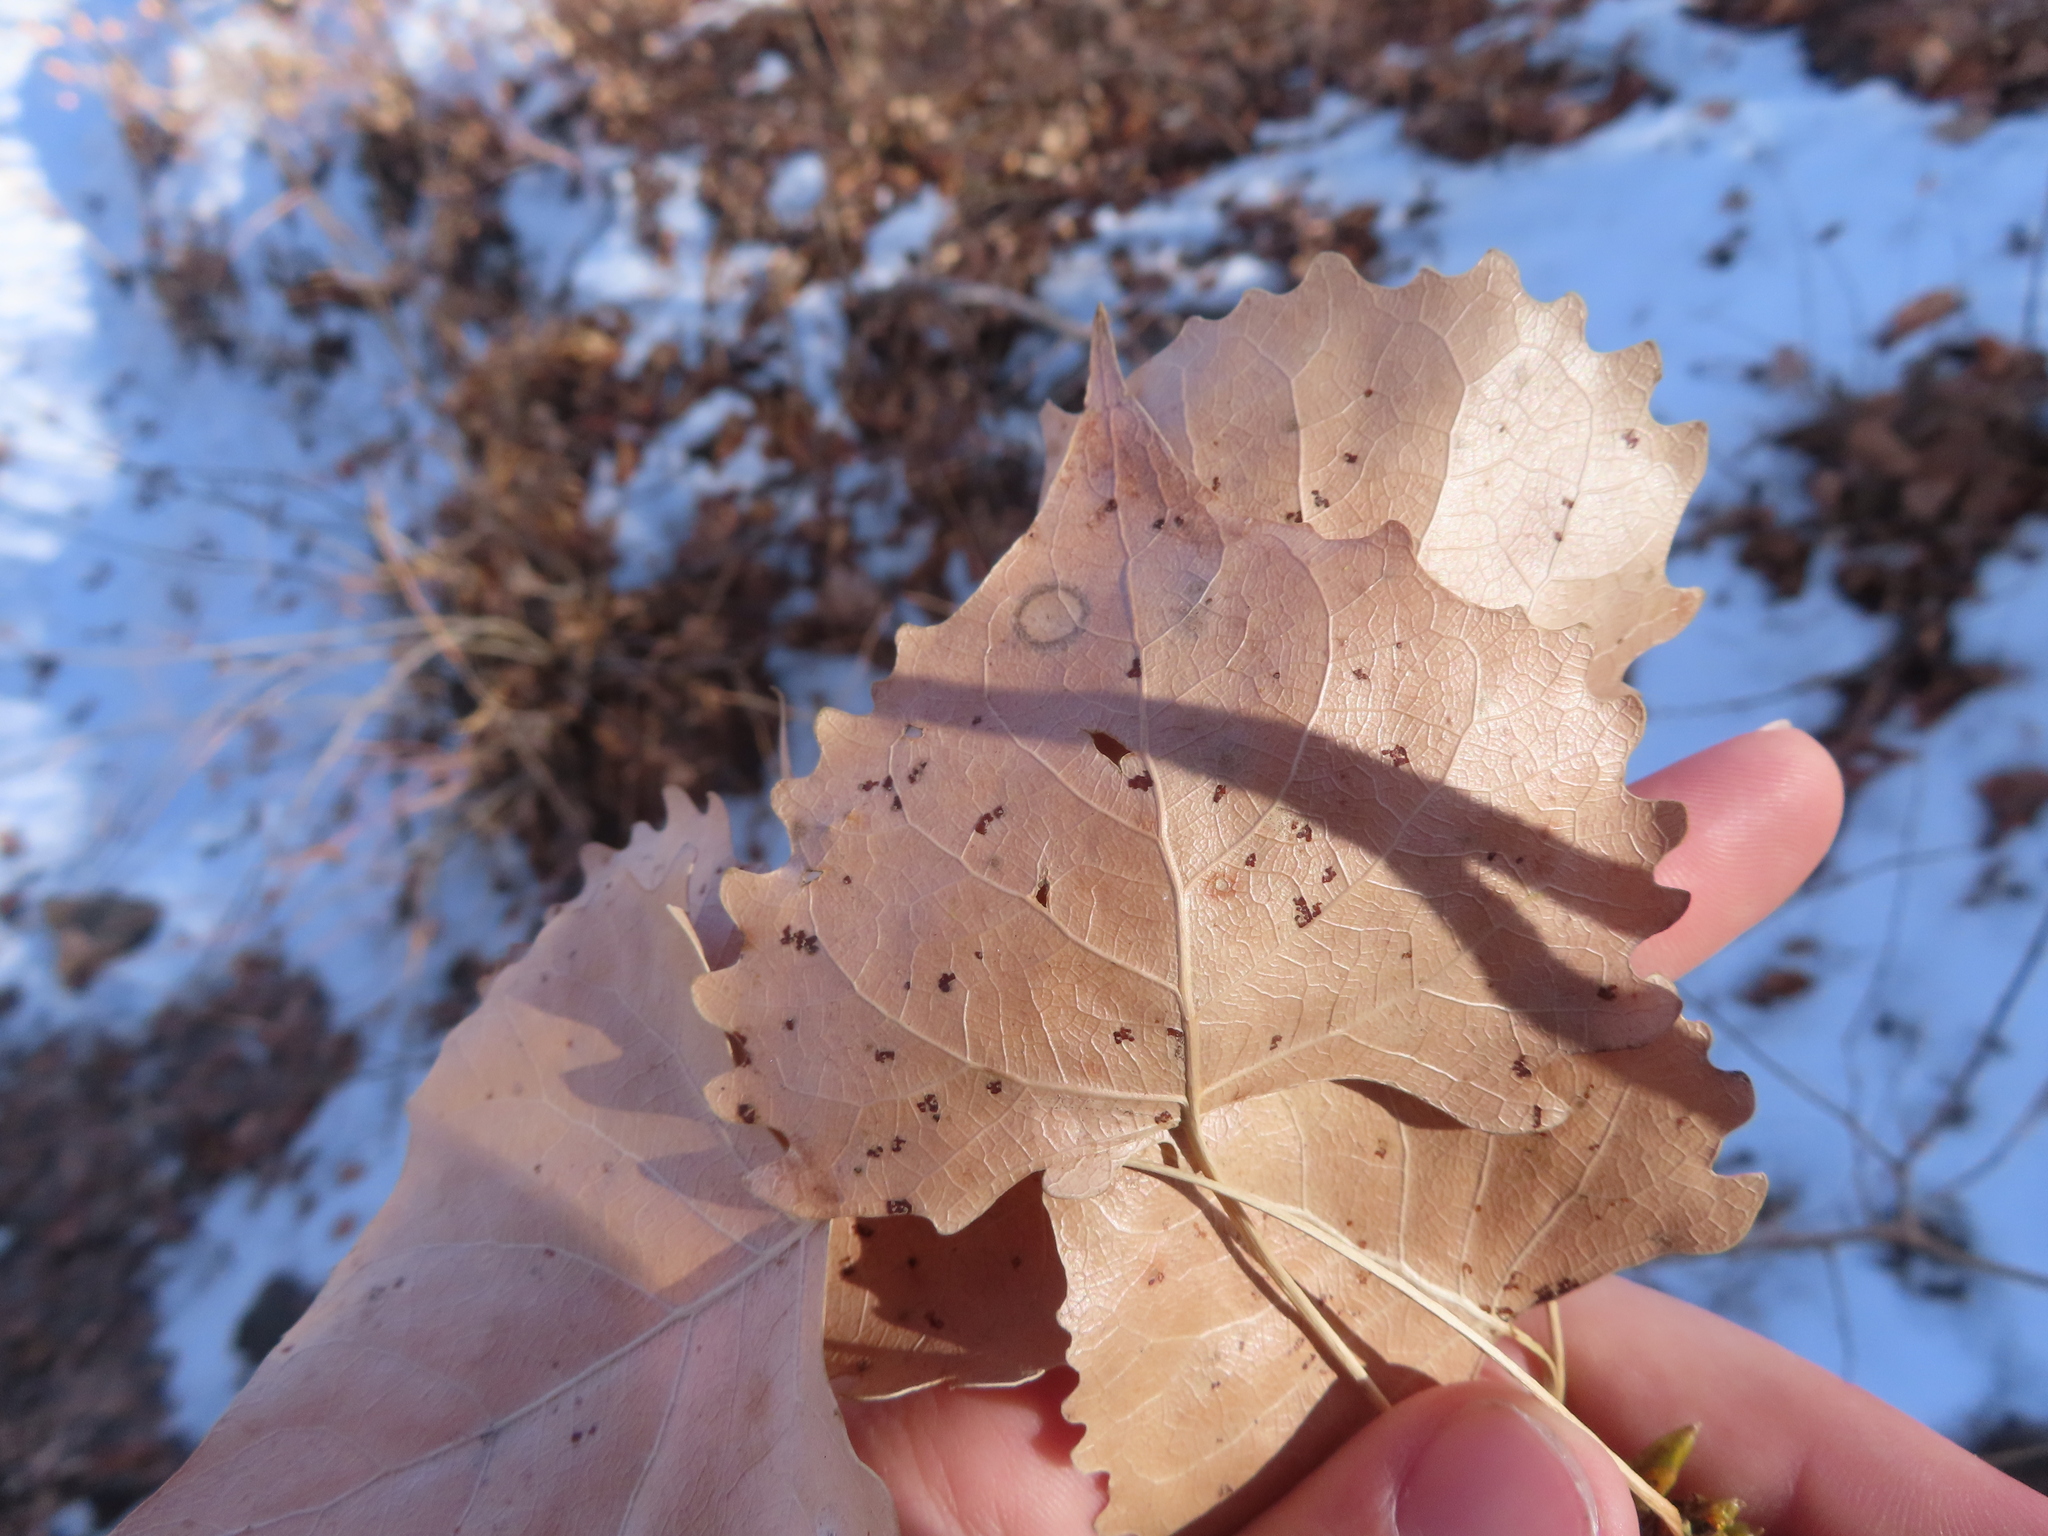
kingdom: Plantae
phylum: Tracheophyta
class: Magnoliopsida
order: Malpighiales
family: Salicaceae
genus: Populus
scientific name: Populus deltoides
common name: Eastern cottonwood
